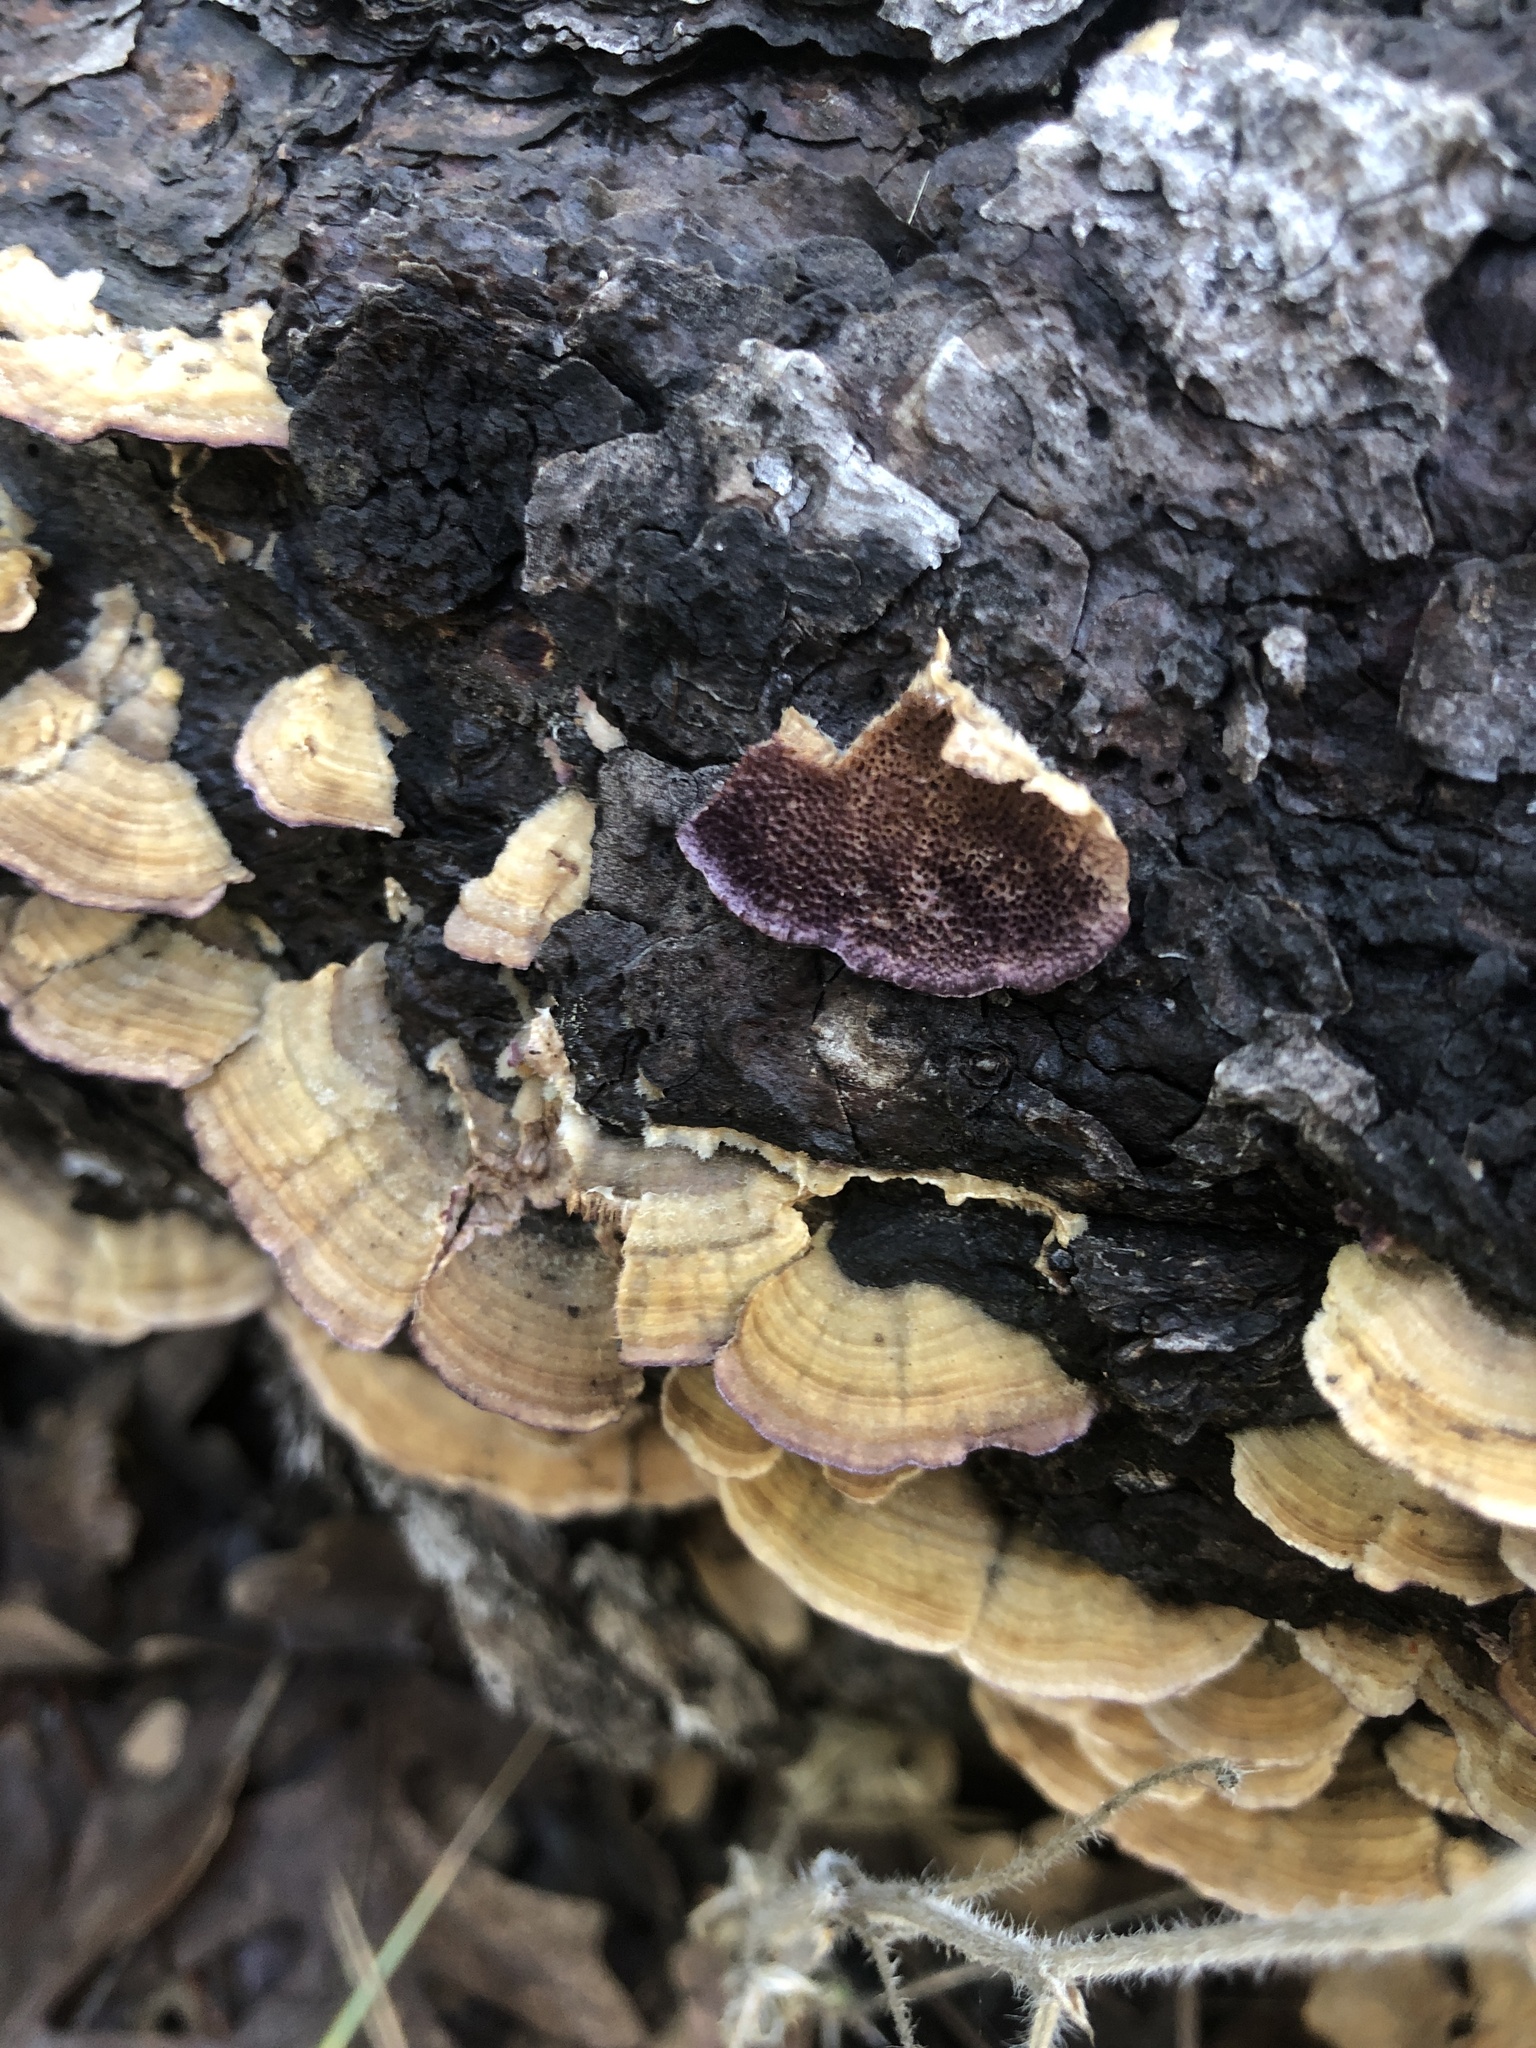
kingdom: Fungi
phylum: Basidiomycota
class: Agaricomycetes
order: Hymenochaetales
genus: Trichaptum
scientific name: Trichaptum abietinum
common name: Purplepore bracket
